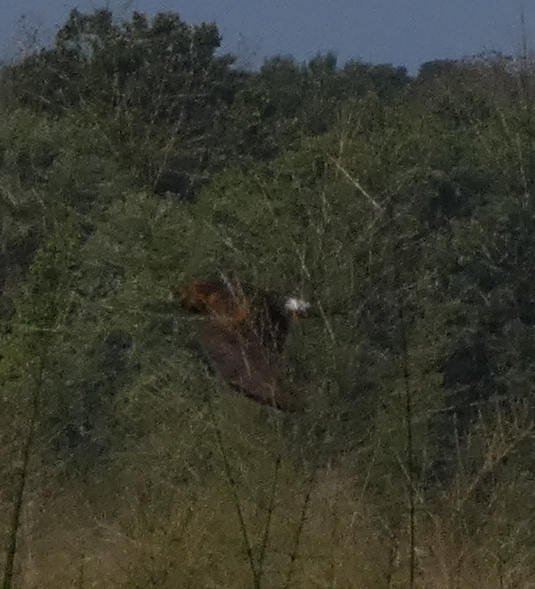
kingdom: Animalia
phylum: Chordata
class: Aves
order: Accipitriformes
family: Accipitridae
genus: Circus
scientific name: Circus cyaneus
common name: Hen harrier
